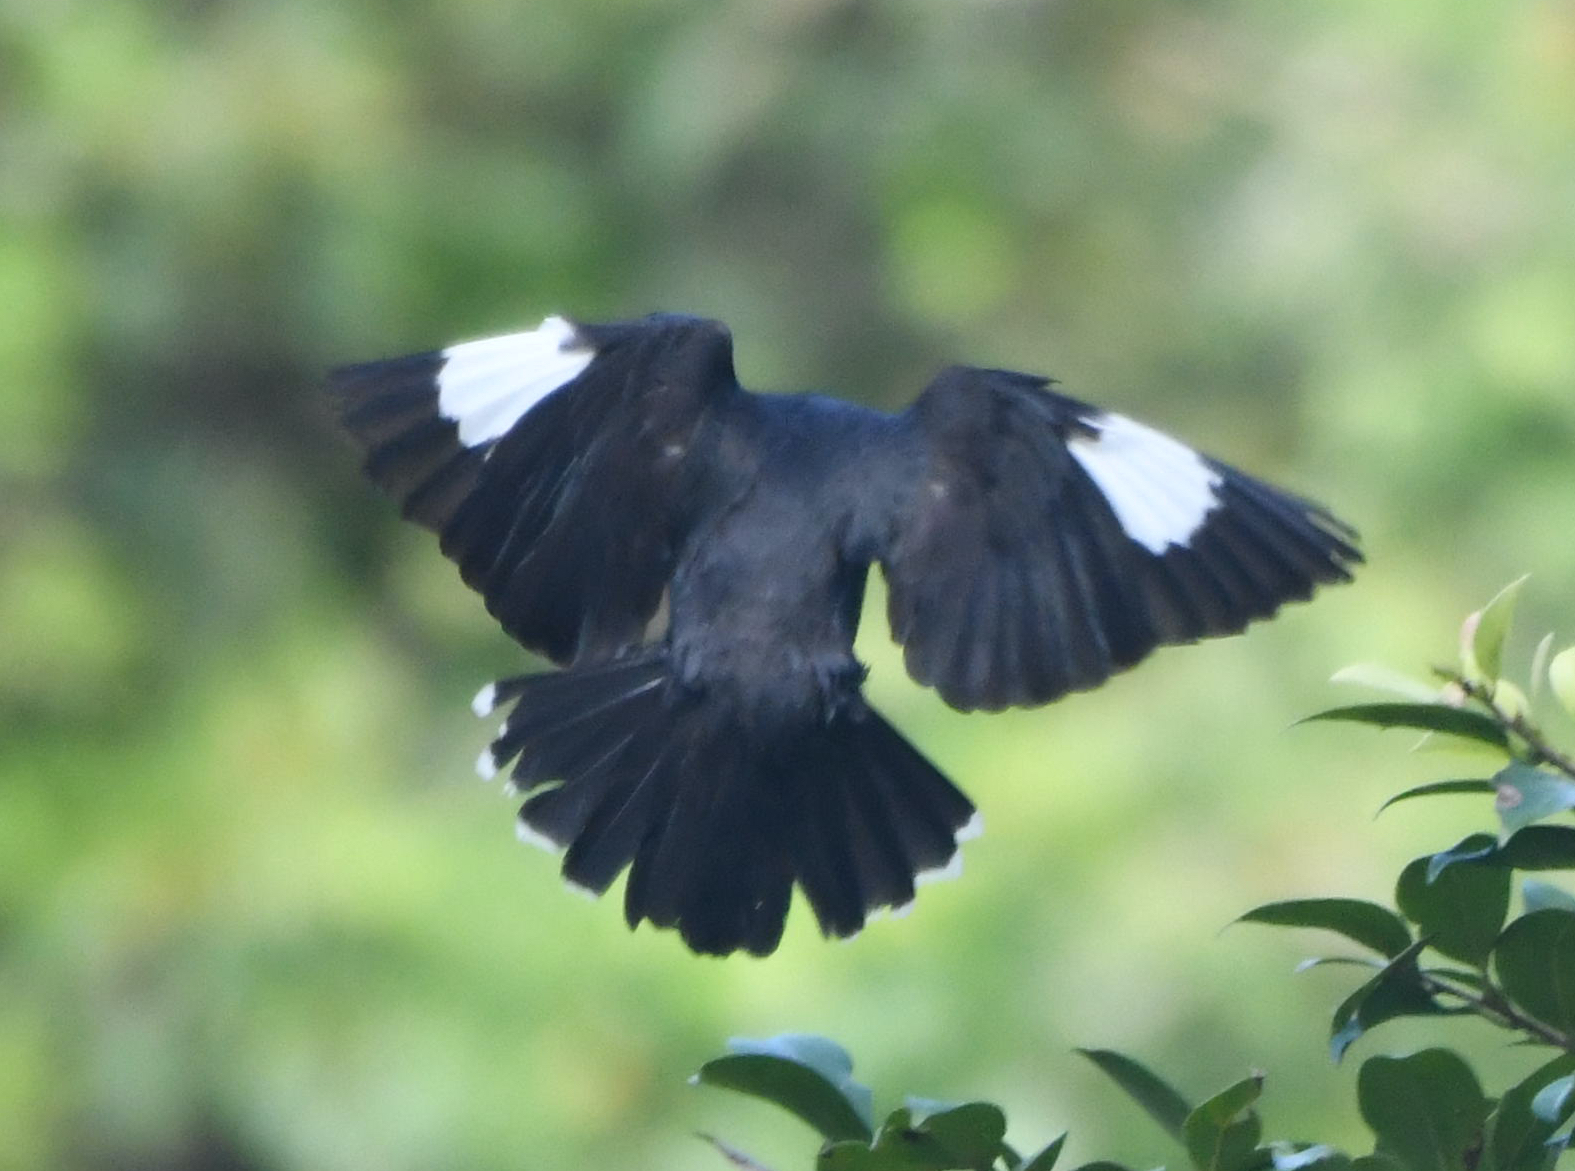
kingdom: Animalia
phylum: Chordata
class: Aves
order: Passeriformes
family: Sturnidae
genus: Acridotheres
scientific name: Acridotheres cristatellus
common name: Crested myna
